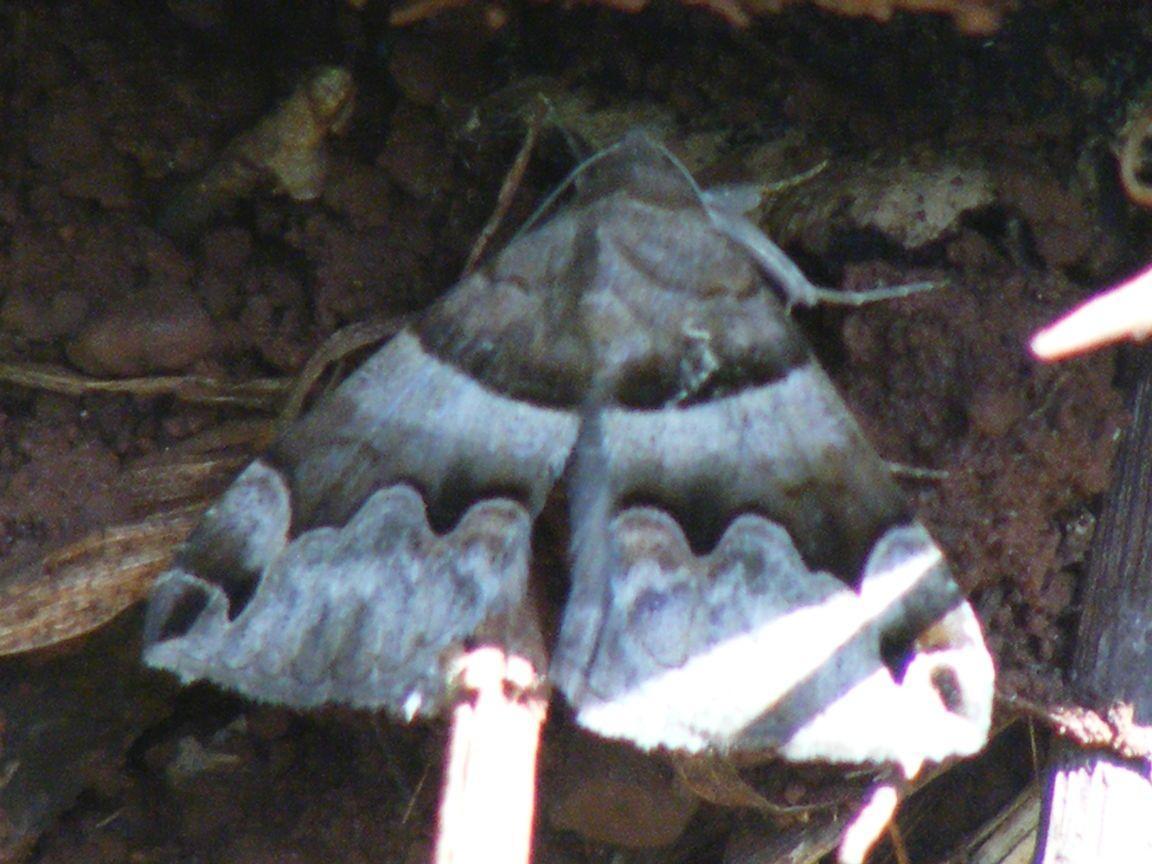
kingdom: Animalia
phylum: Arthropoda
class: Insecta
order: Lepidoptera
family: Erebidae
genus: Dysgonia
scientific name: Dysgonia angularis
